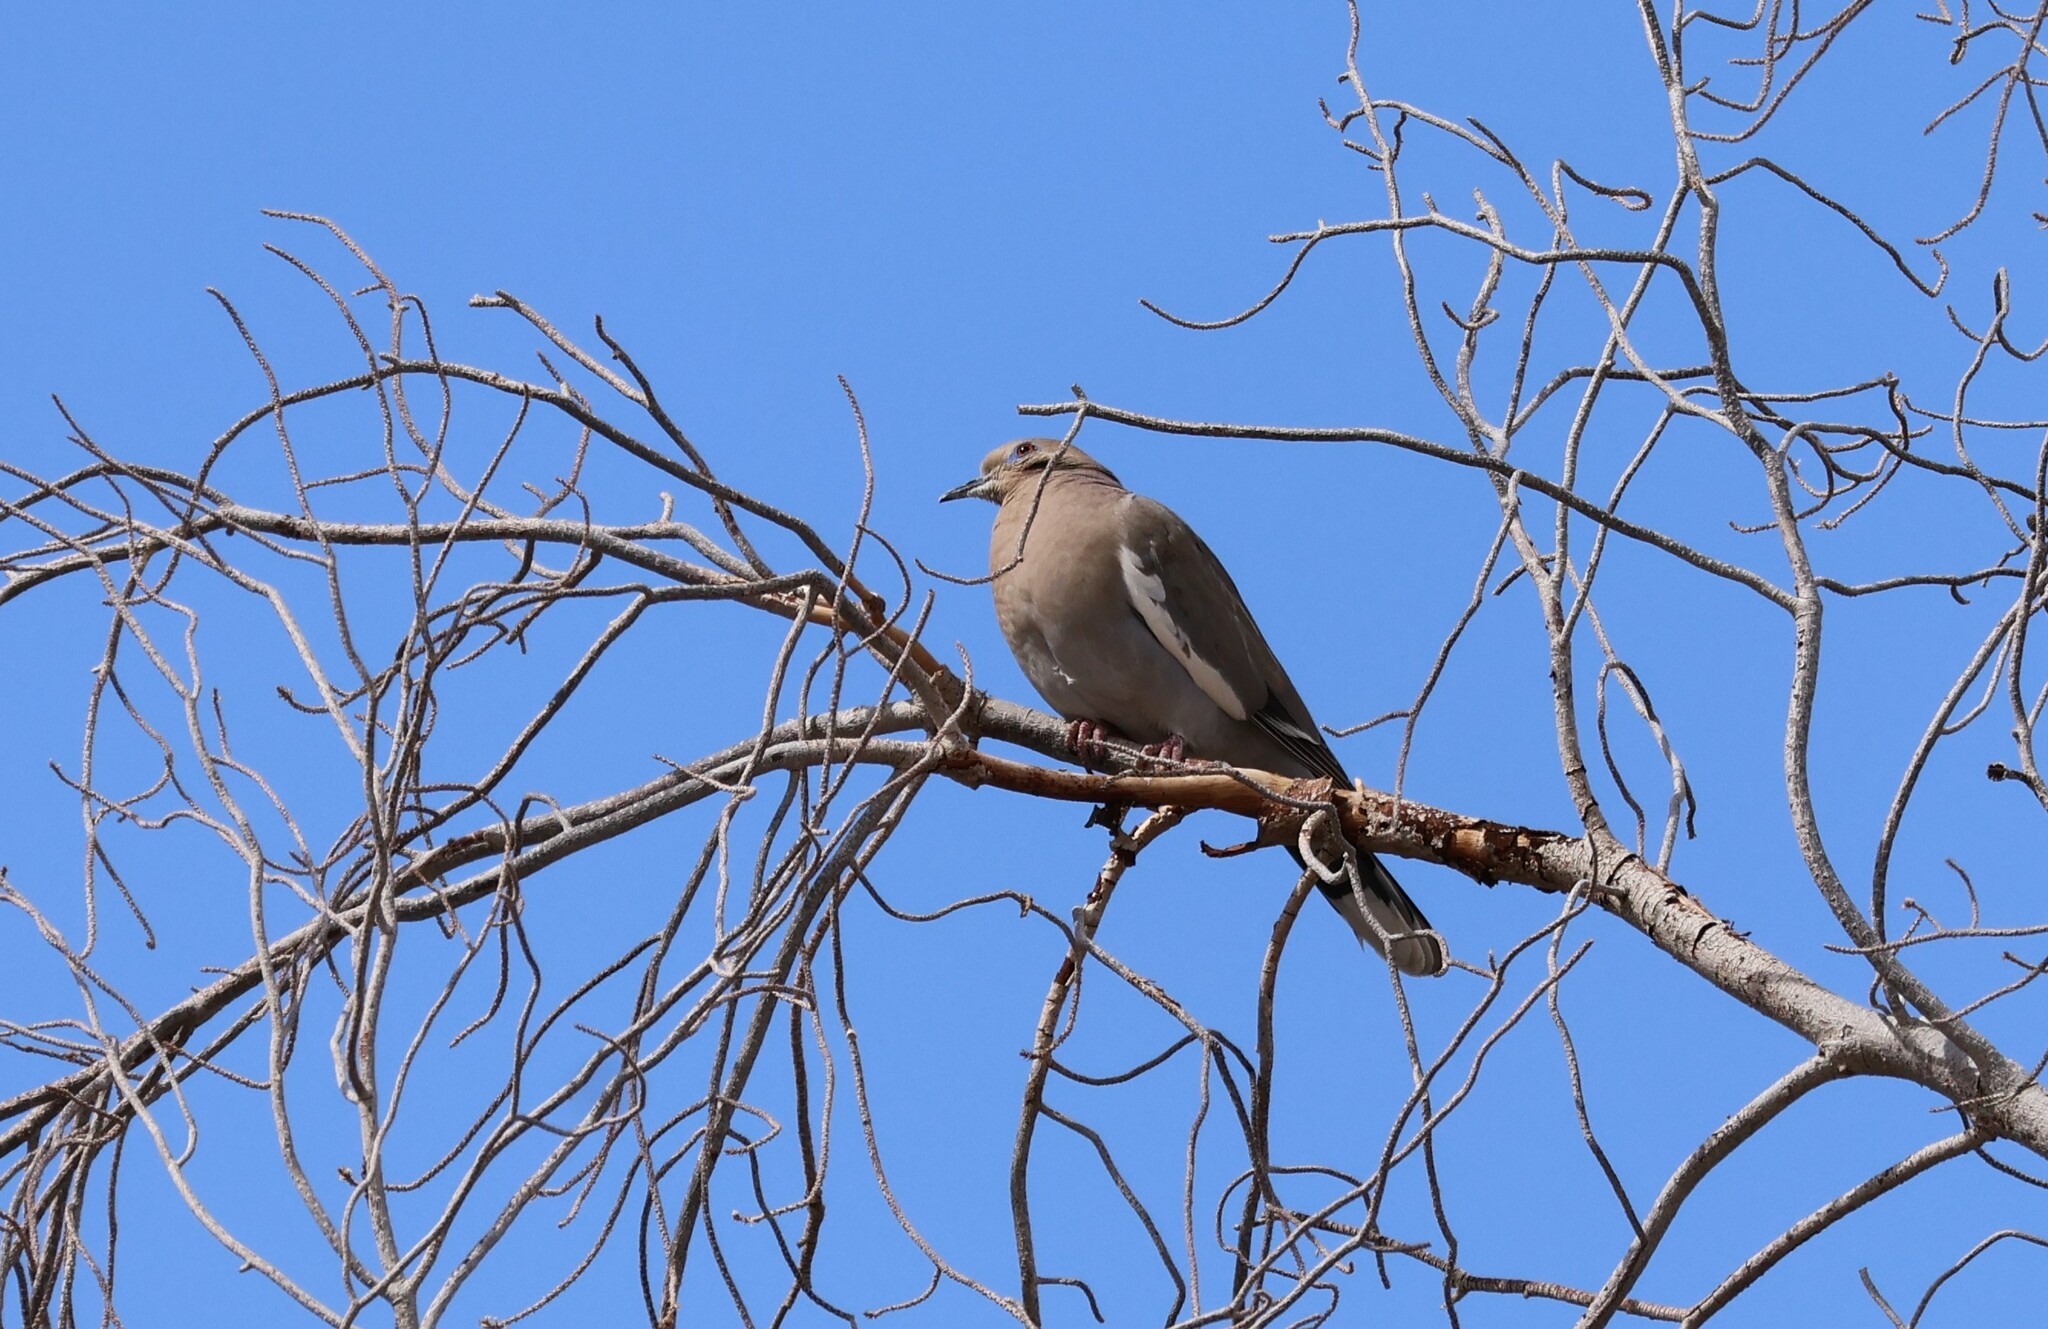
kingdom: Animalia
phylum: Chordata
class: Aves
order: Columbiformes
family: Columbidae
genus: Zenaida
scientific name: Zenaida asiatica
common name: White-winged dove
